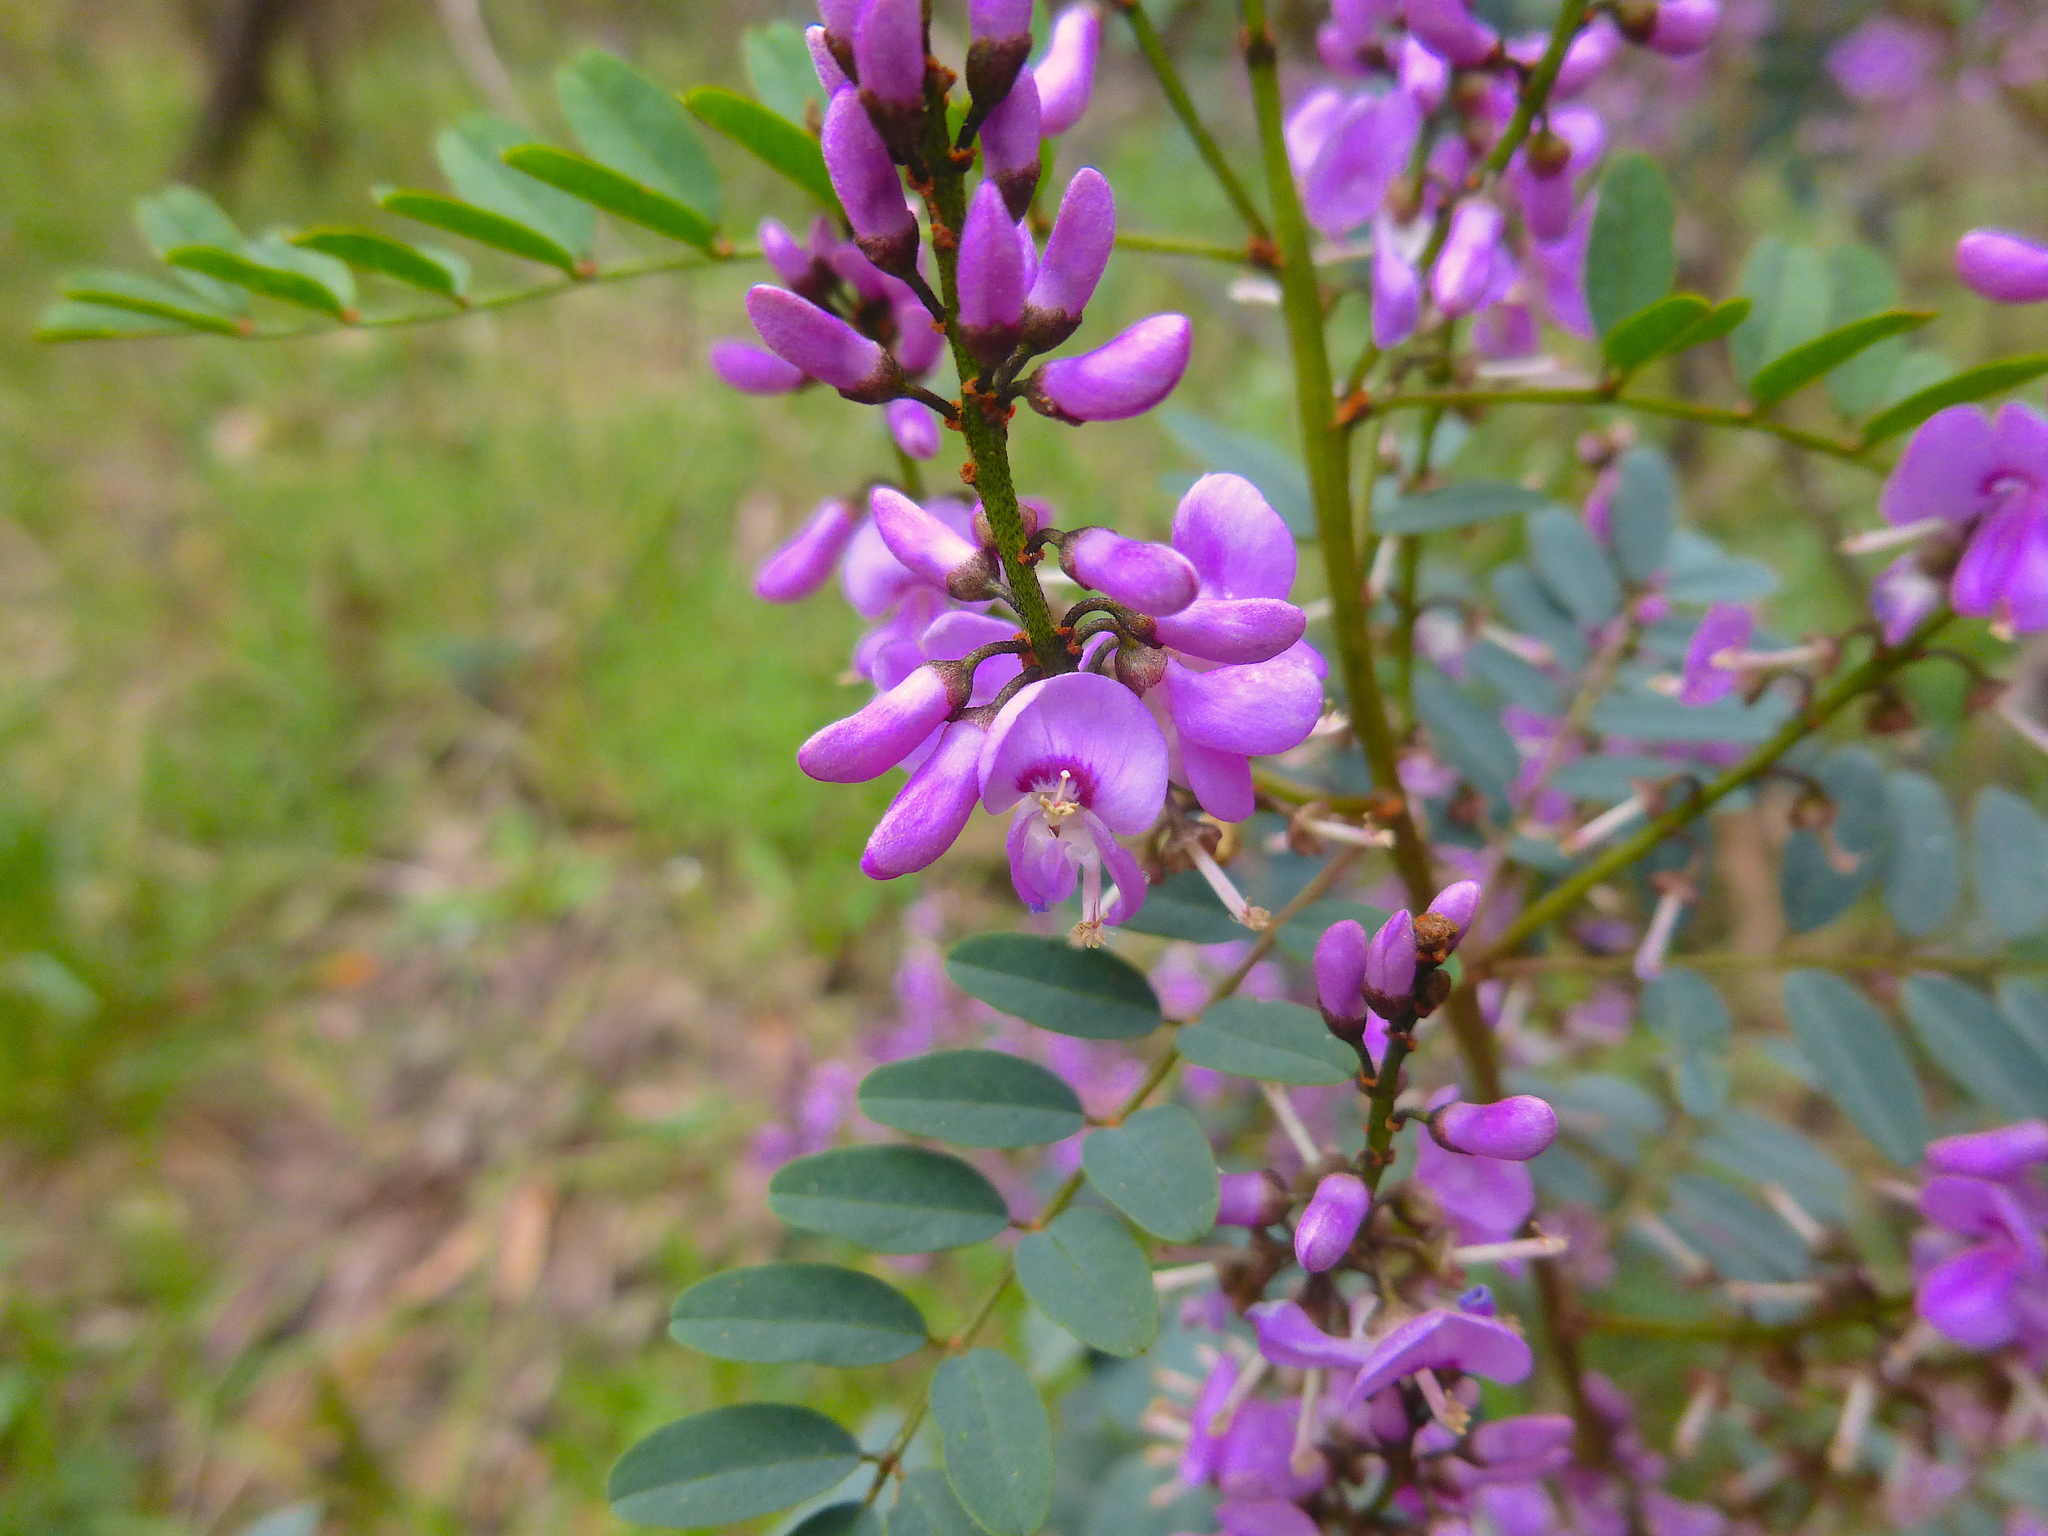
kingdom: Plantae
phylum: Tracheophyta
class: Magnoliopsida
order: Fabales
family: Fabaceae
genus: Indigofera
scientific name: Indigofera australis
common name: Australian indigo
